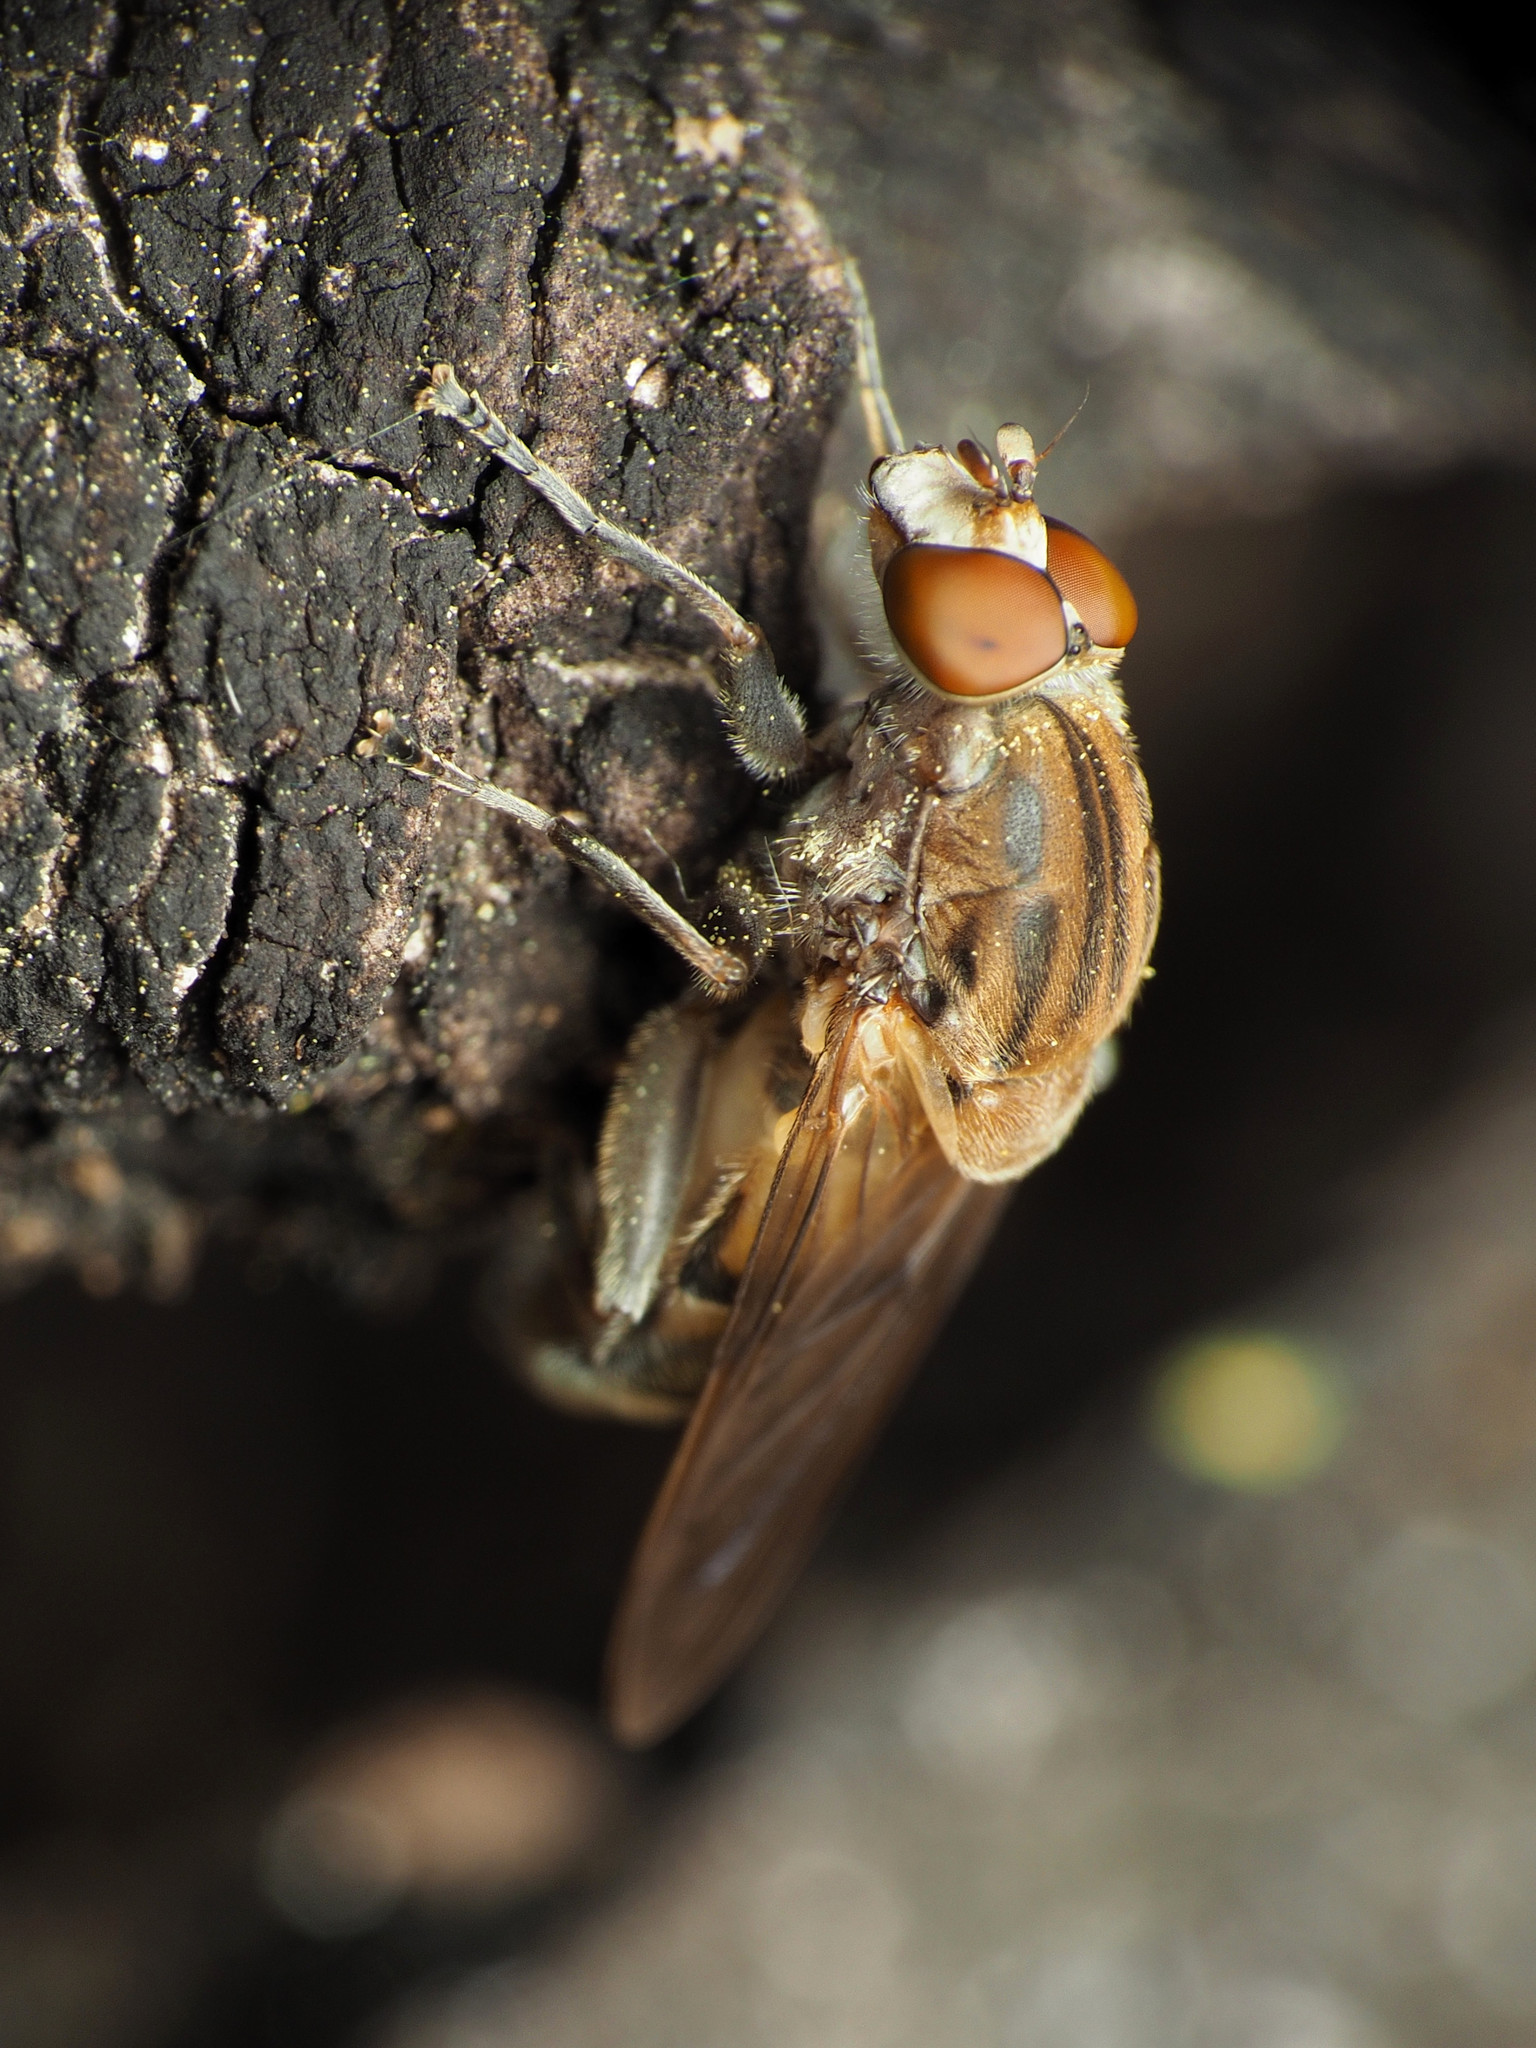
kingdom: Animalia
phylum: Arthropoda
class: Insecta
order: Diptera
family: Syrphidae
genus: Brachyopa
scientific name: Brachyopa vacua
